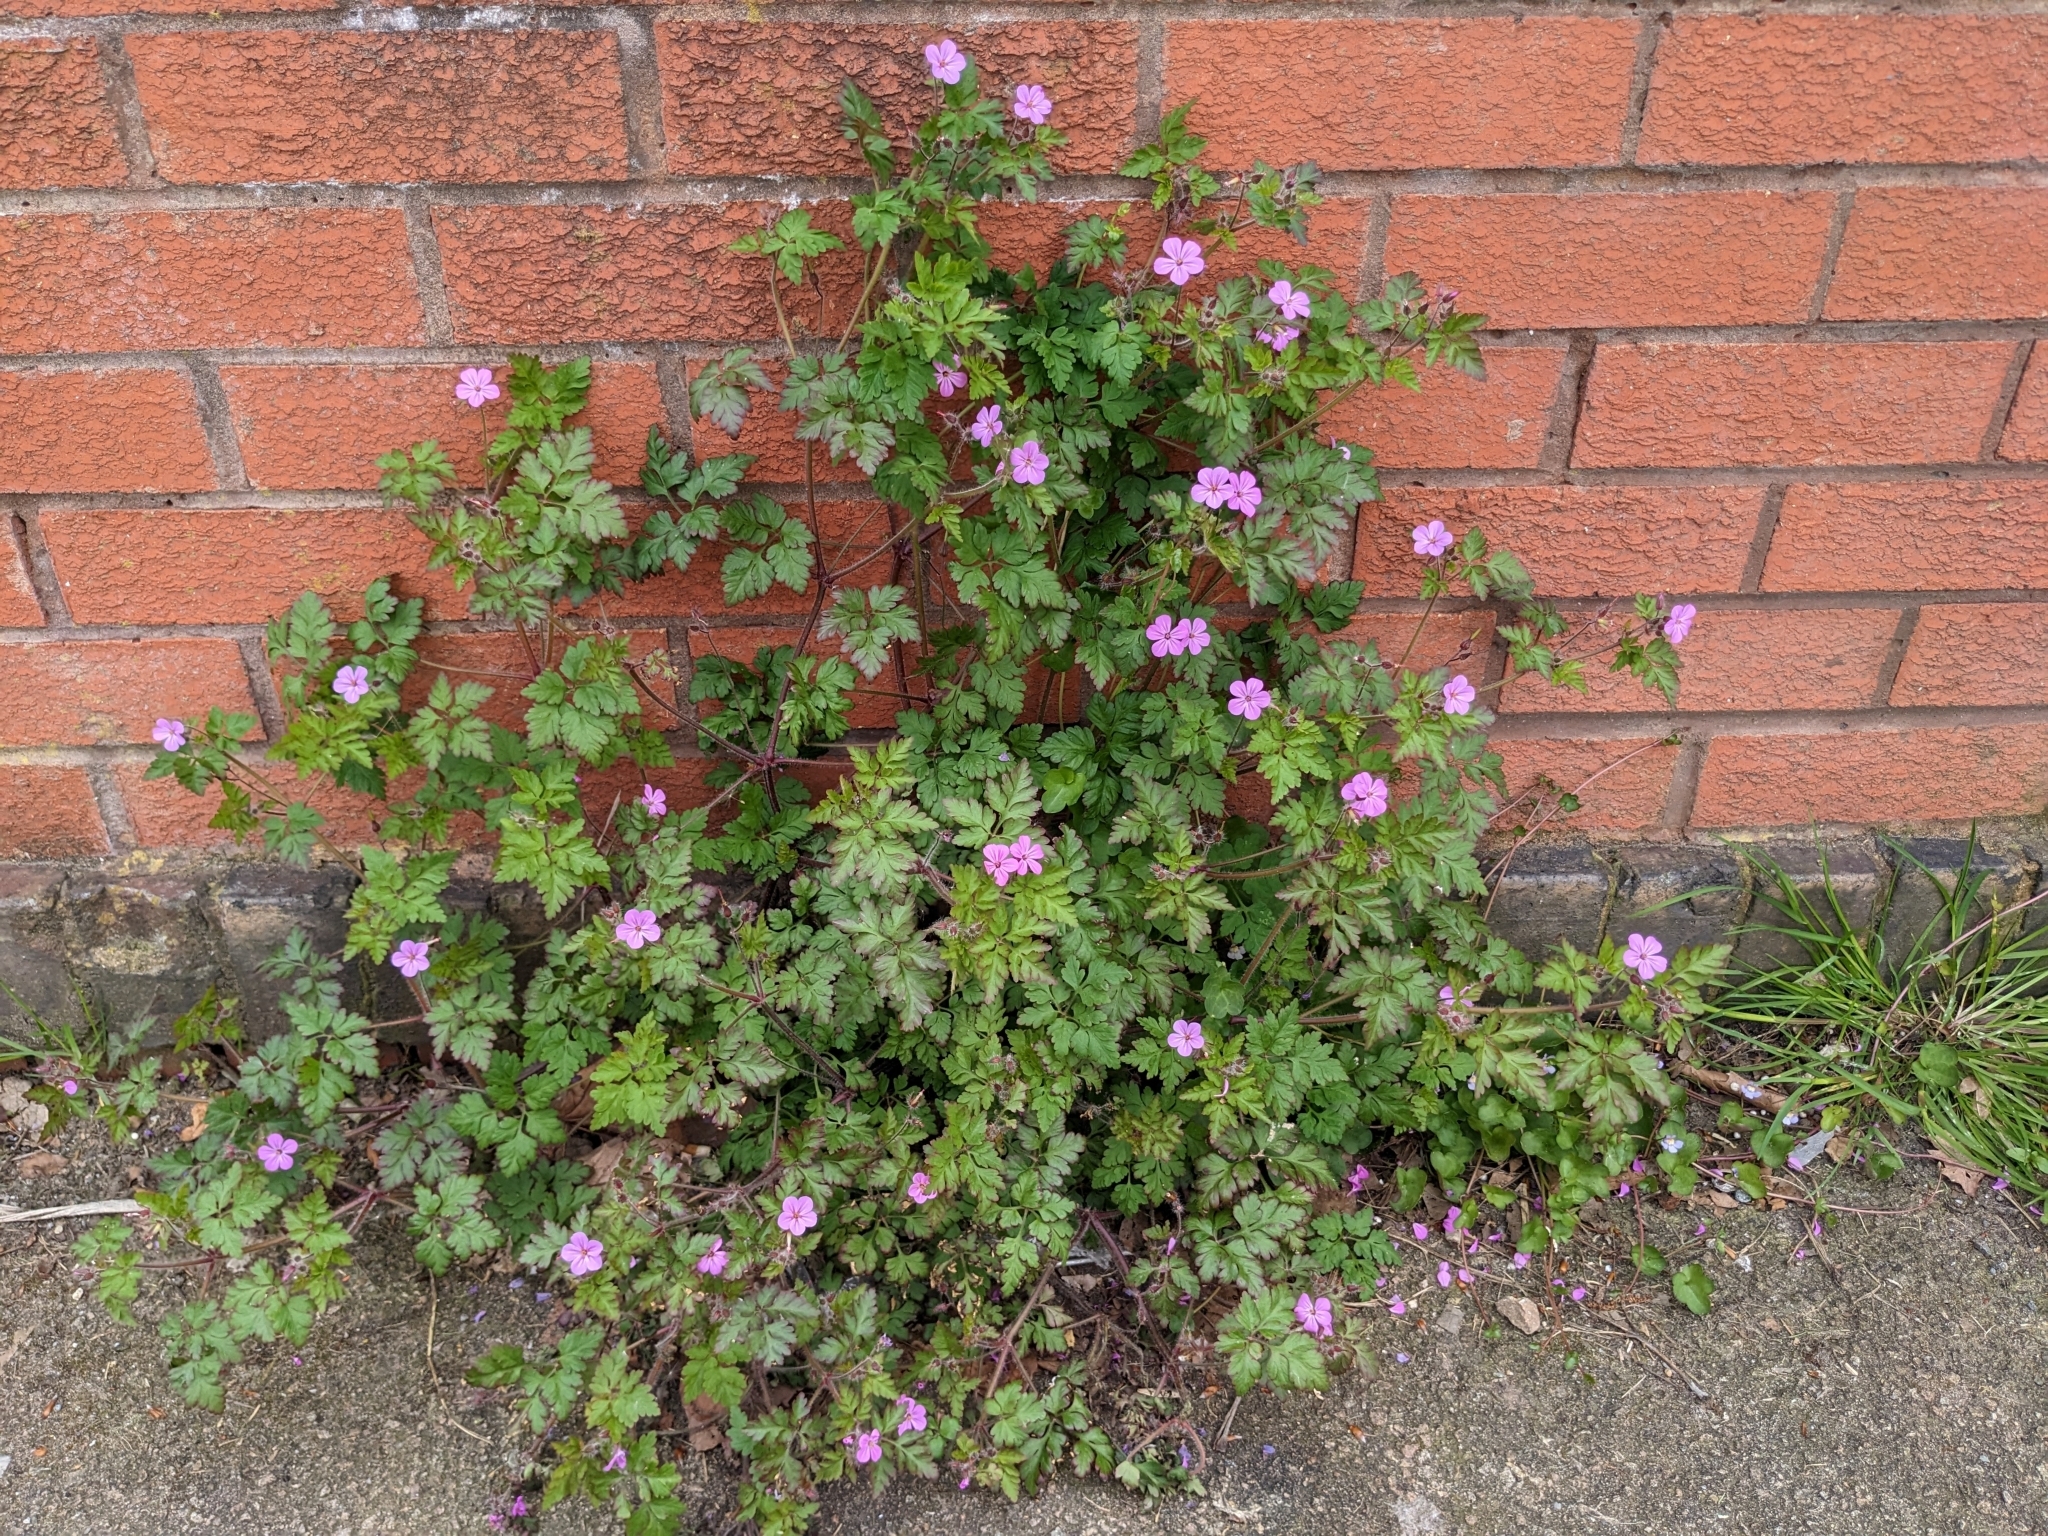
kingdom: Plantae
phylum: Tracheophyta
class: Magnoliopsida
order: Geraniales
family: Geraniaceae
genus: Geranium
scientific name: Geranium robertianum
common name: Herb-robert
